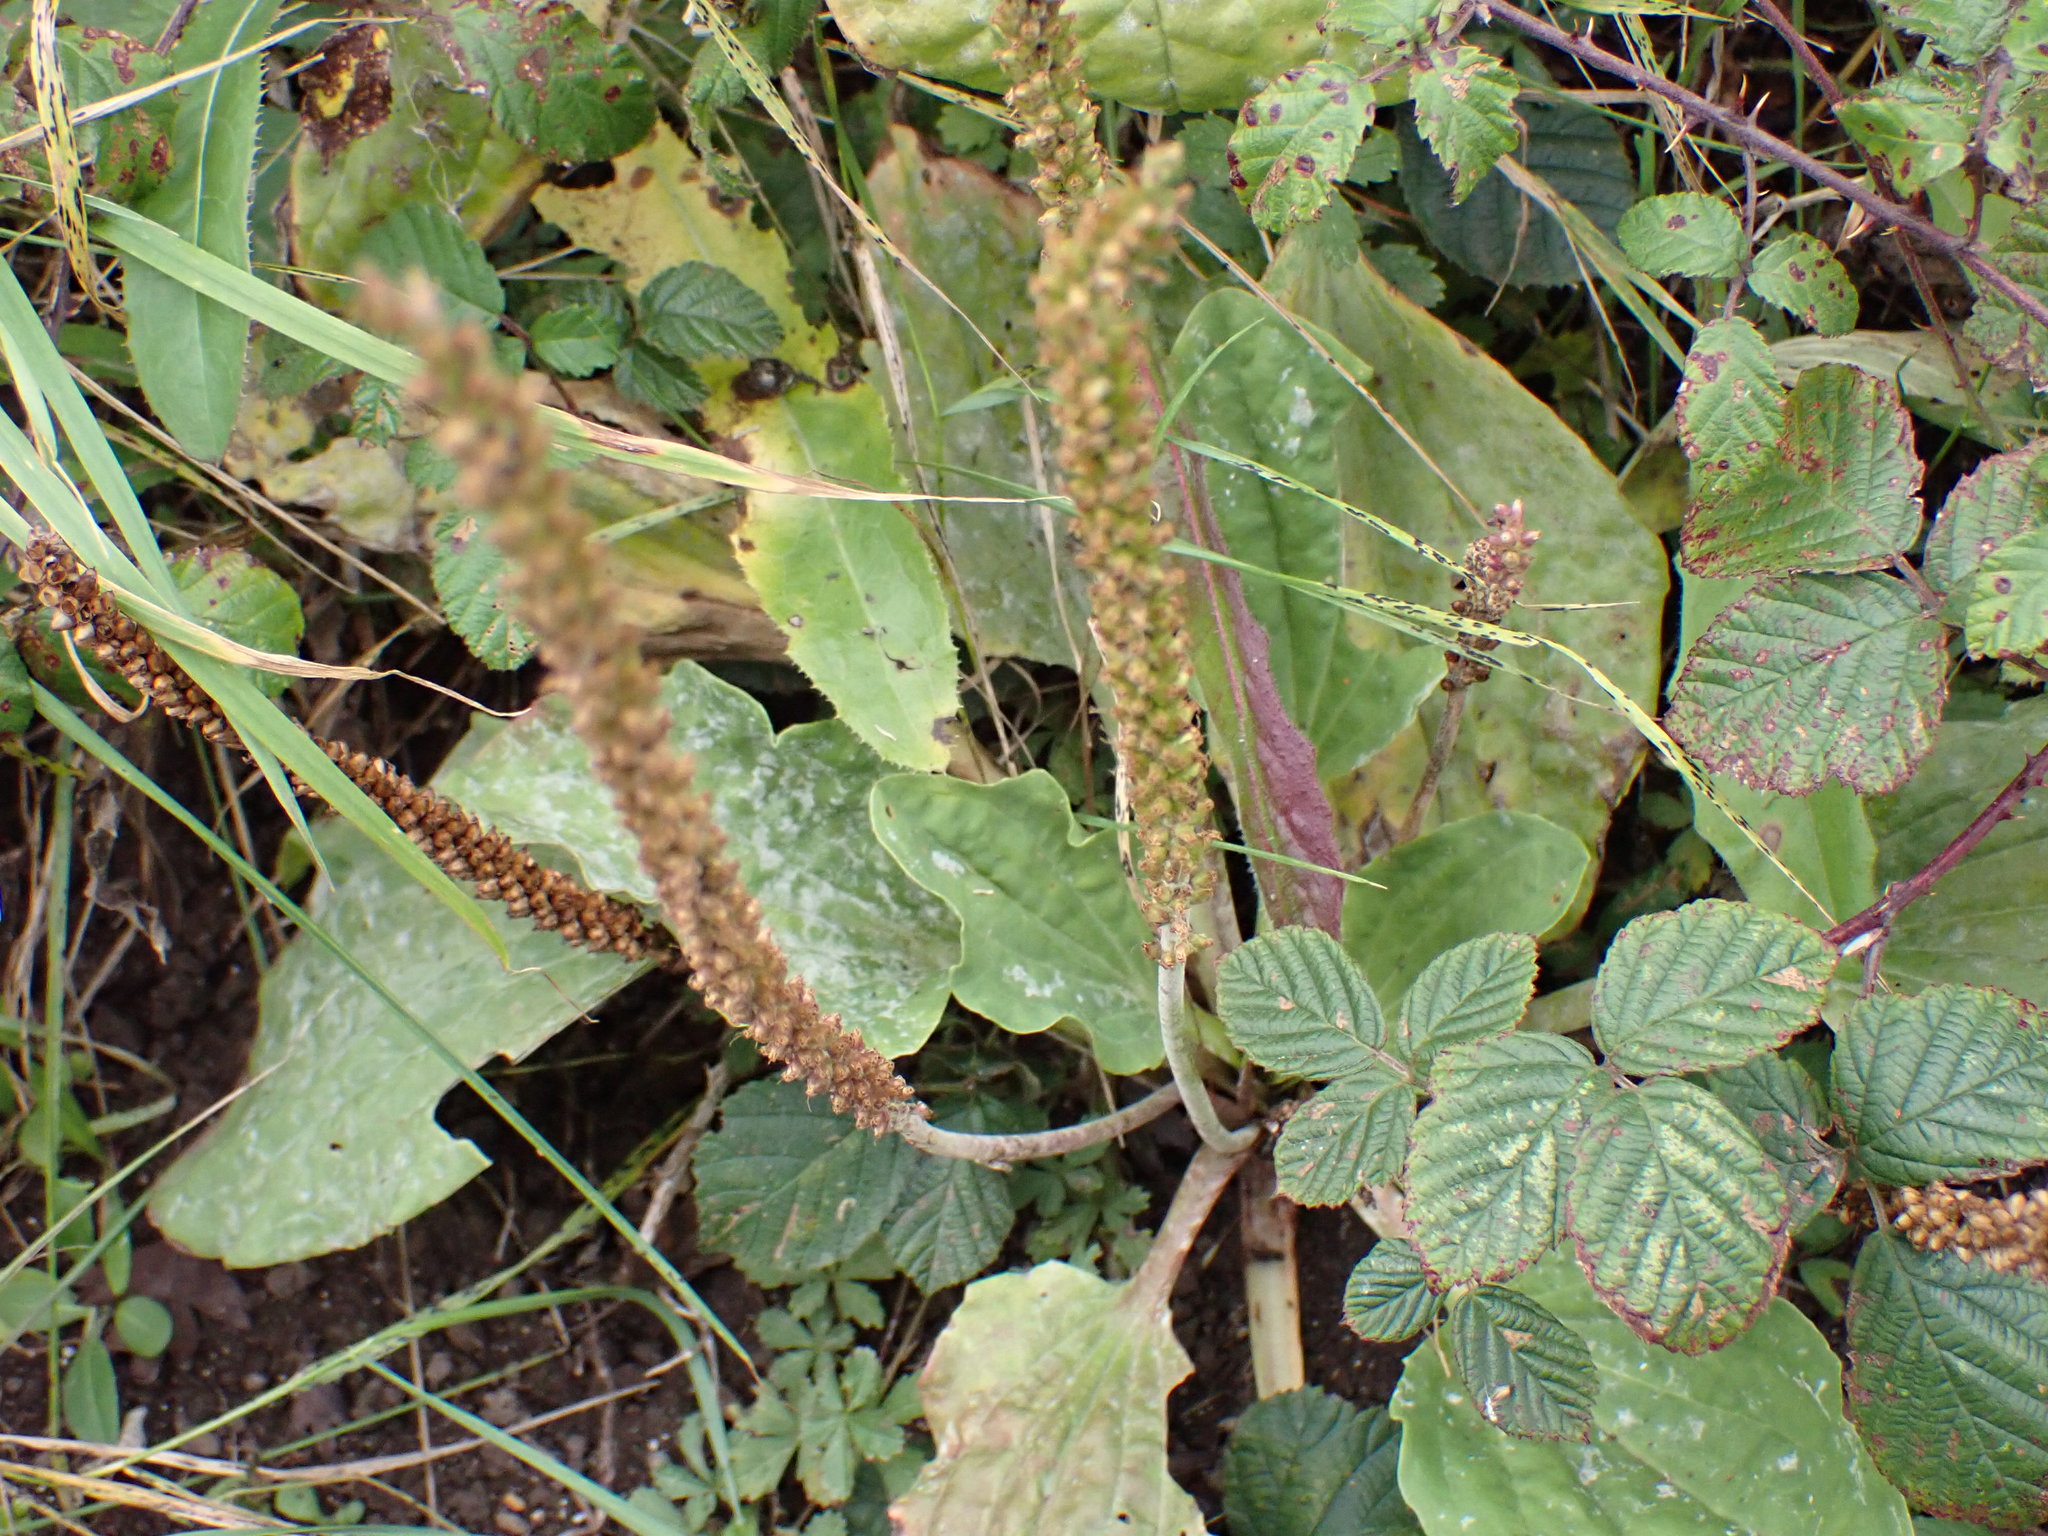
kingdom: Plantae
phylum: Tracheophyta
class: Magnoliopsida
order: Lamiales
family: Plantaginaceae
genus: Plantago
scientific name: Plantago major
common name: Common plantain
